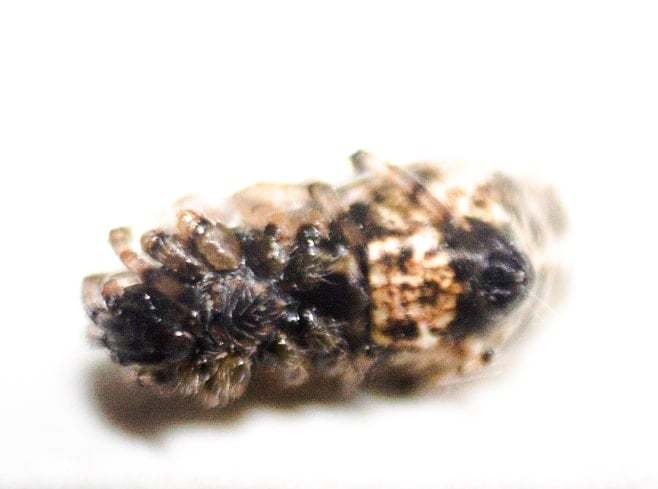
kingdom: Animalia
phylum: Arthropoda
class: Arachnida
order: Araneae
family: Araneidae
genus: Cyclosa
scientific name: Cyclosa insulana
